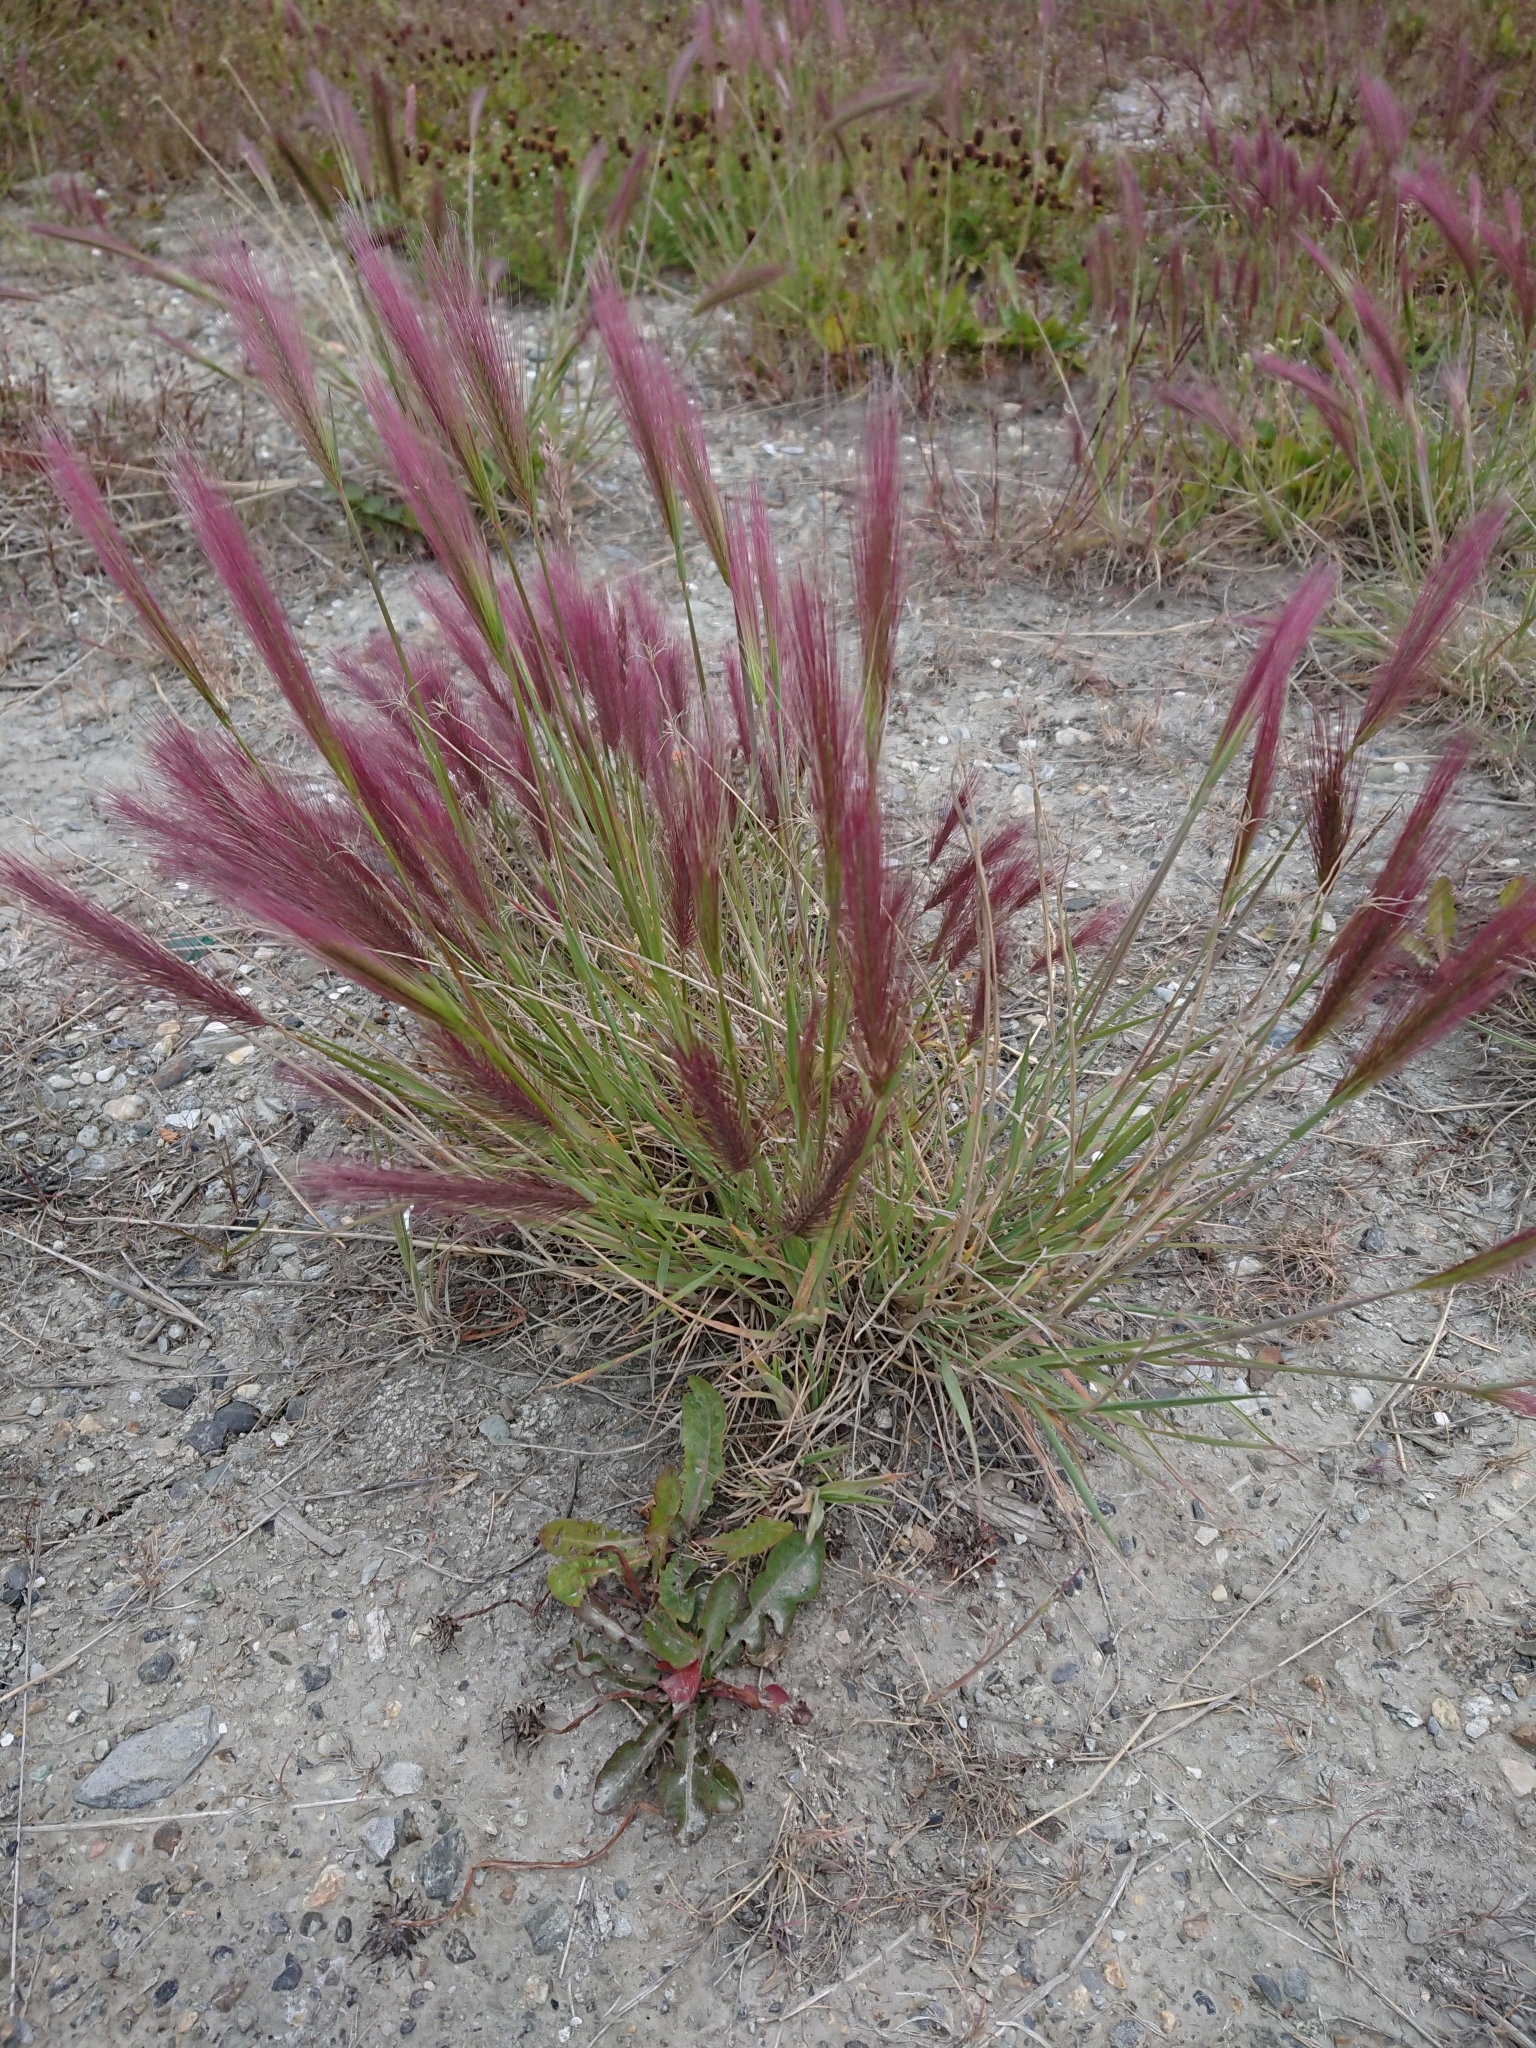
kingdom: Plantae
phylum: Tracheophyta
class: Liliopsida
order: Poales
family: Poaceae
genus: Hordeum
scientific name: Hordeum jubatum
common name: Foxtail barley
